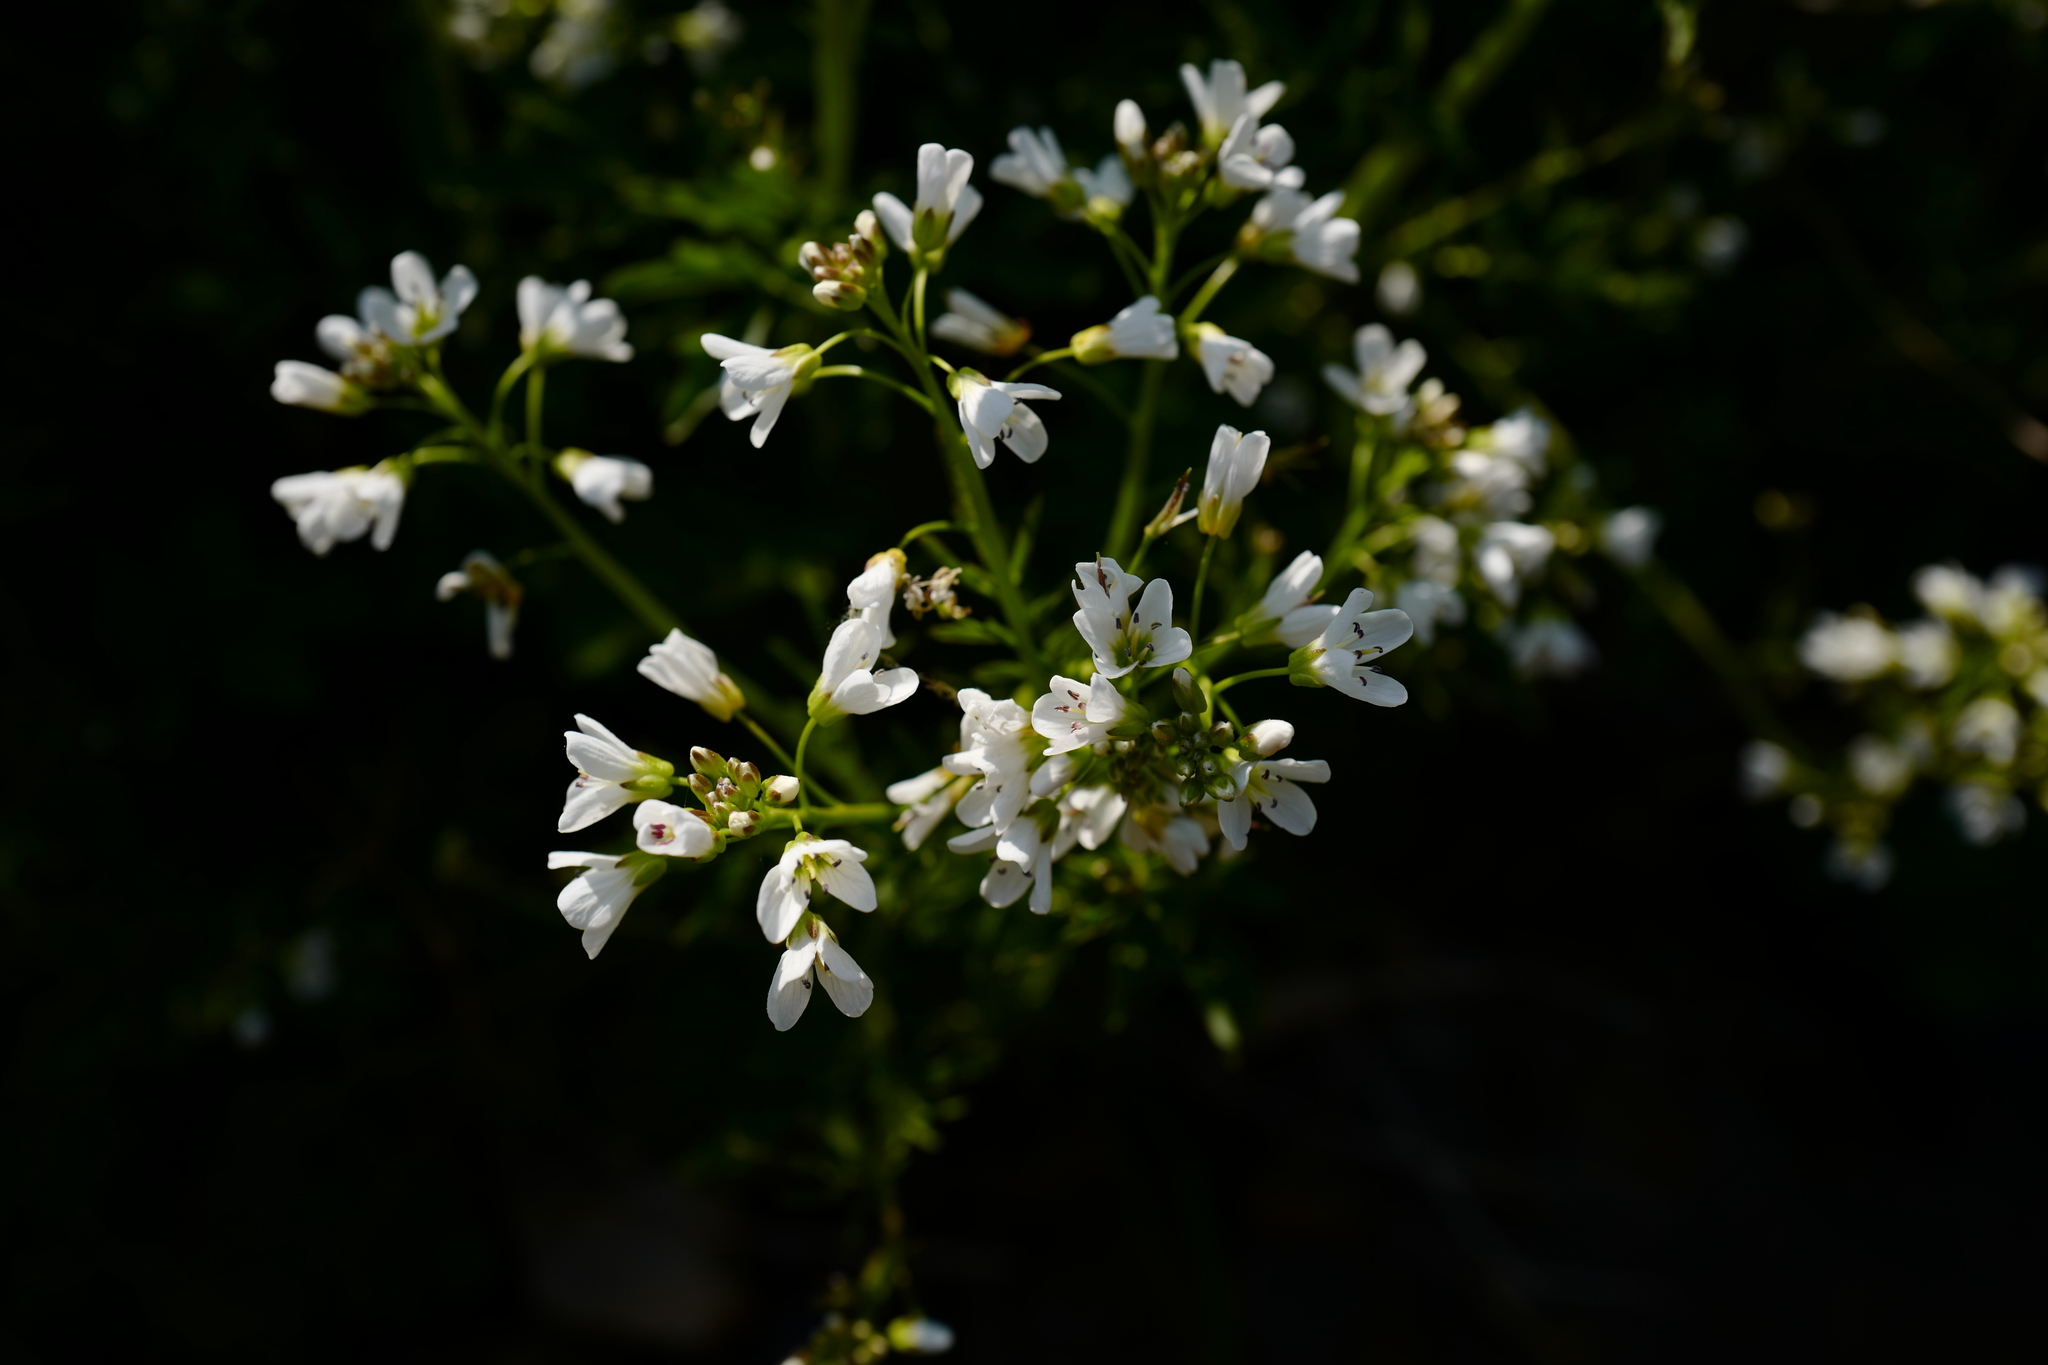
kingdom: Plantae
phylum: Tracheophyta
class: Magnoliopsida
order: Brassicales
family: Brassicaceae
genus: Cardamine
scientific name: Cardamine amara
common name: Large bitter-cress
